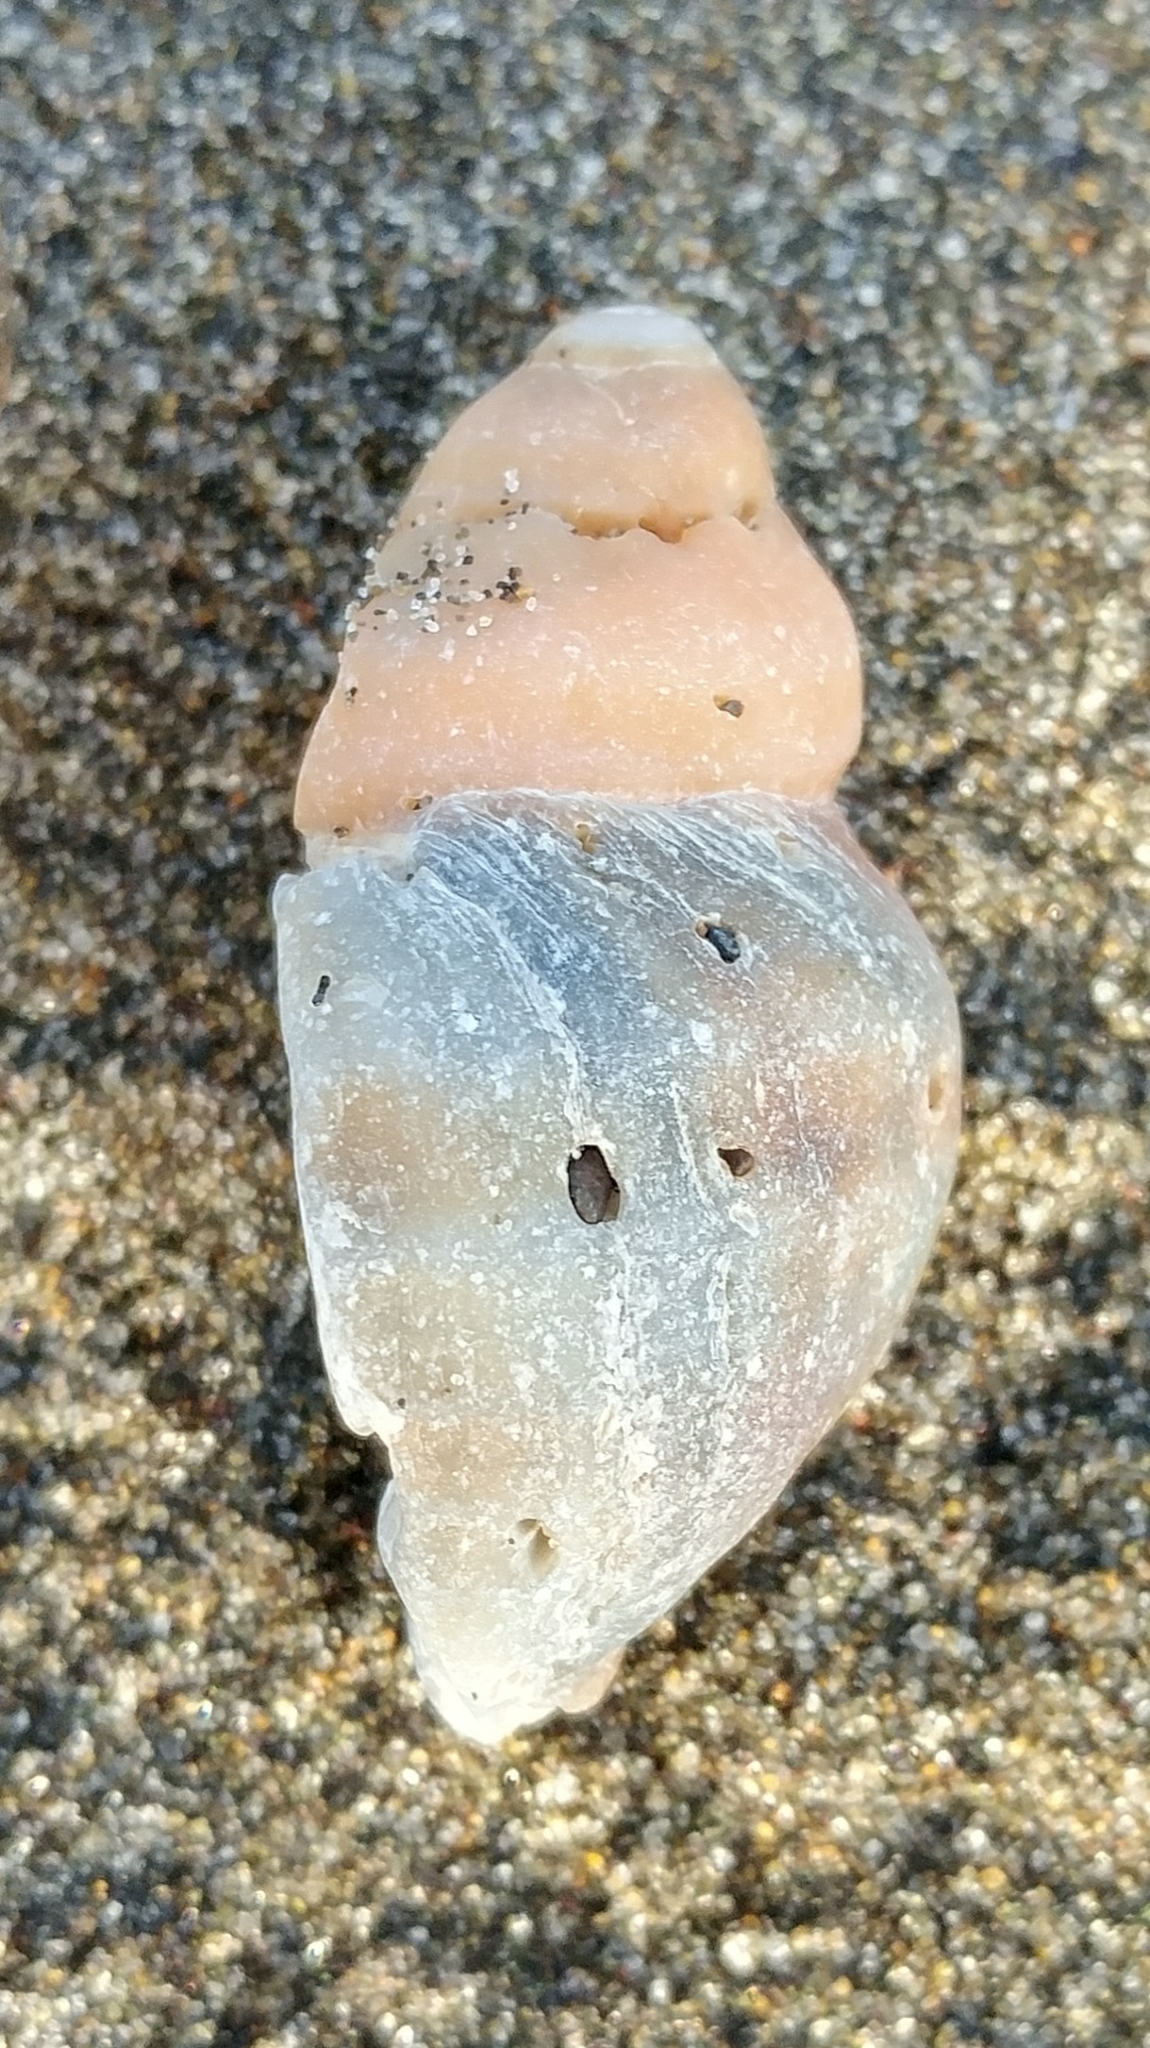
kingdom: Animalia
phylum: Mollusca
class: Gastropoda
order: Neogastropoda
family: Muricidae
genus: Nucella
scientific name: Nucella lamellosa
